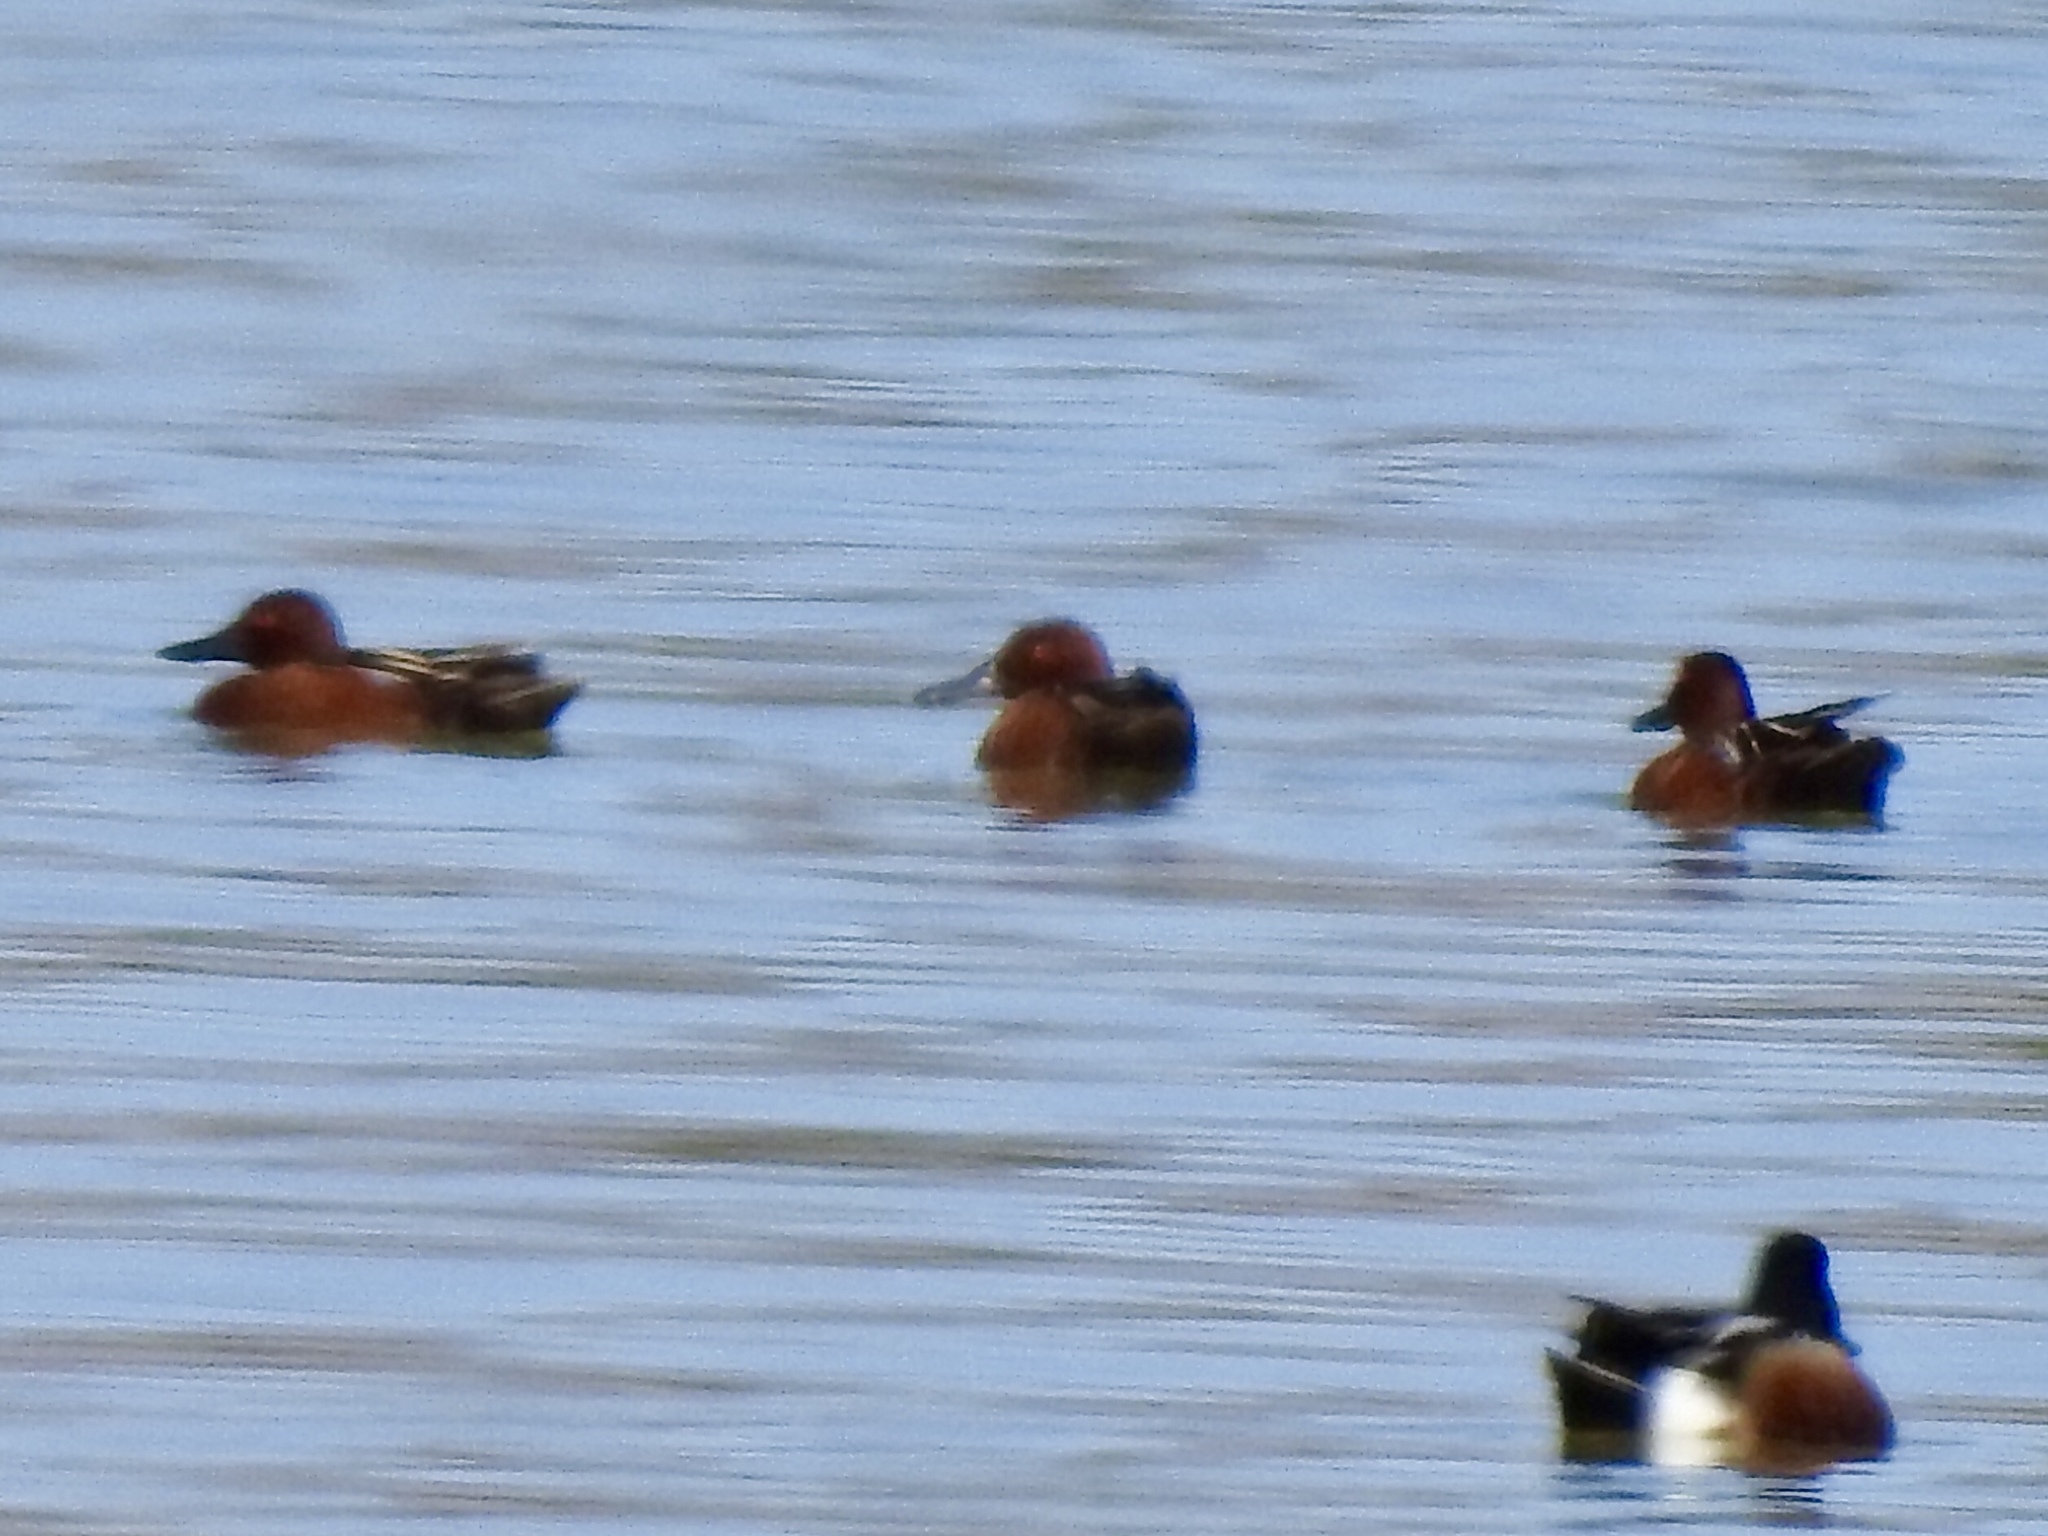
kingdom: Animalia
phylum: Chordata
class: Aves
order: Anseriformes
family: Anatidae
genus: Spatula
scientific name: Spatula cyanoptera
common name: Cinnamon teal
